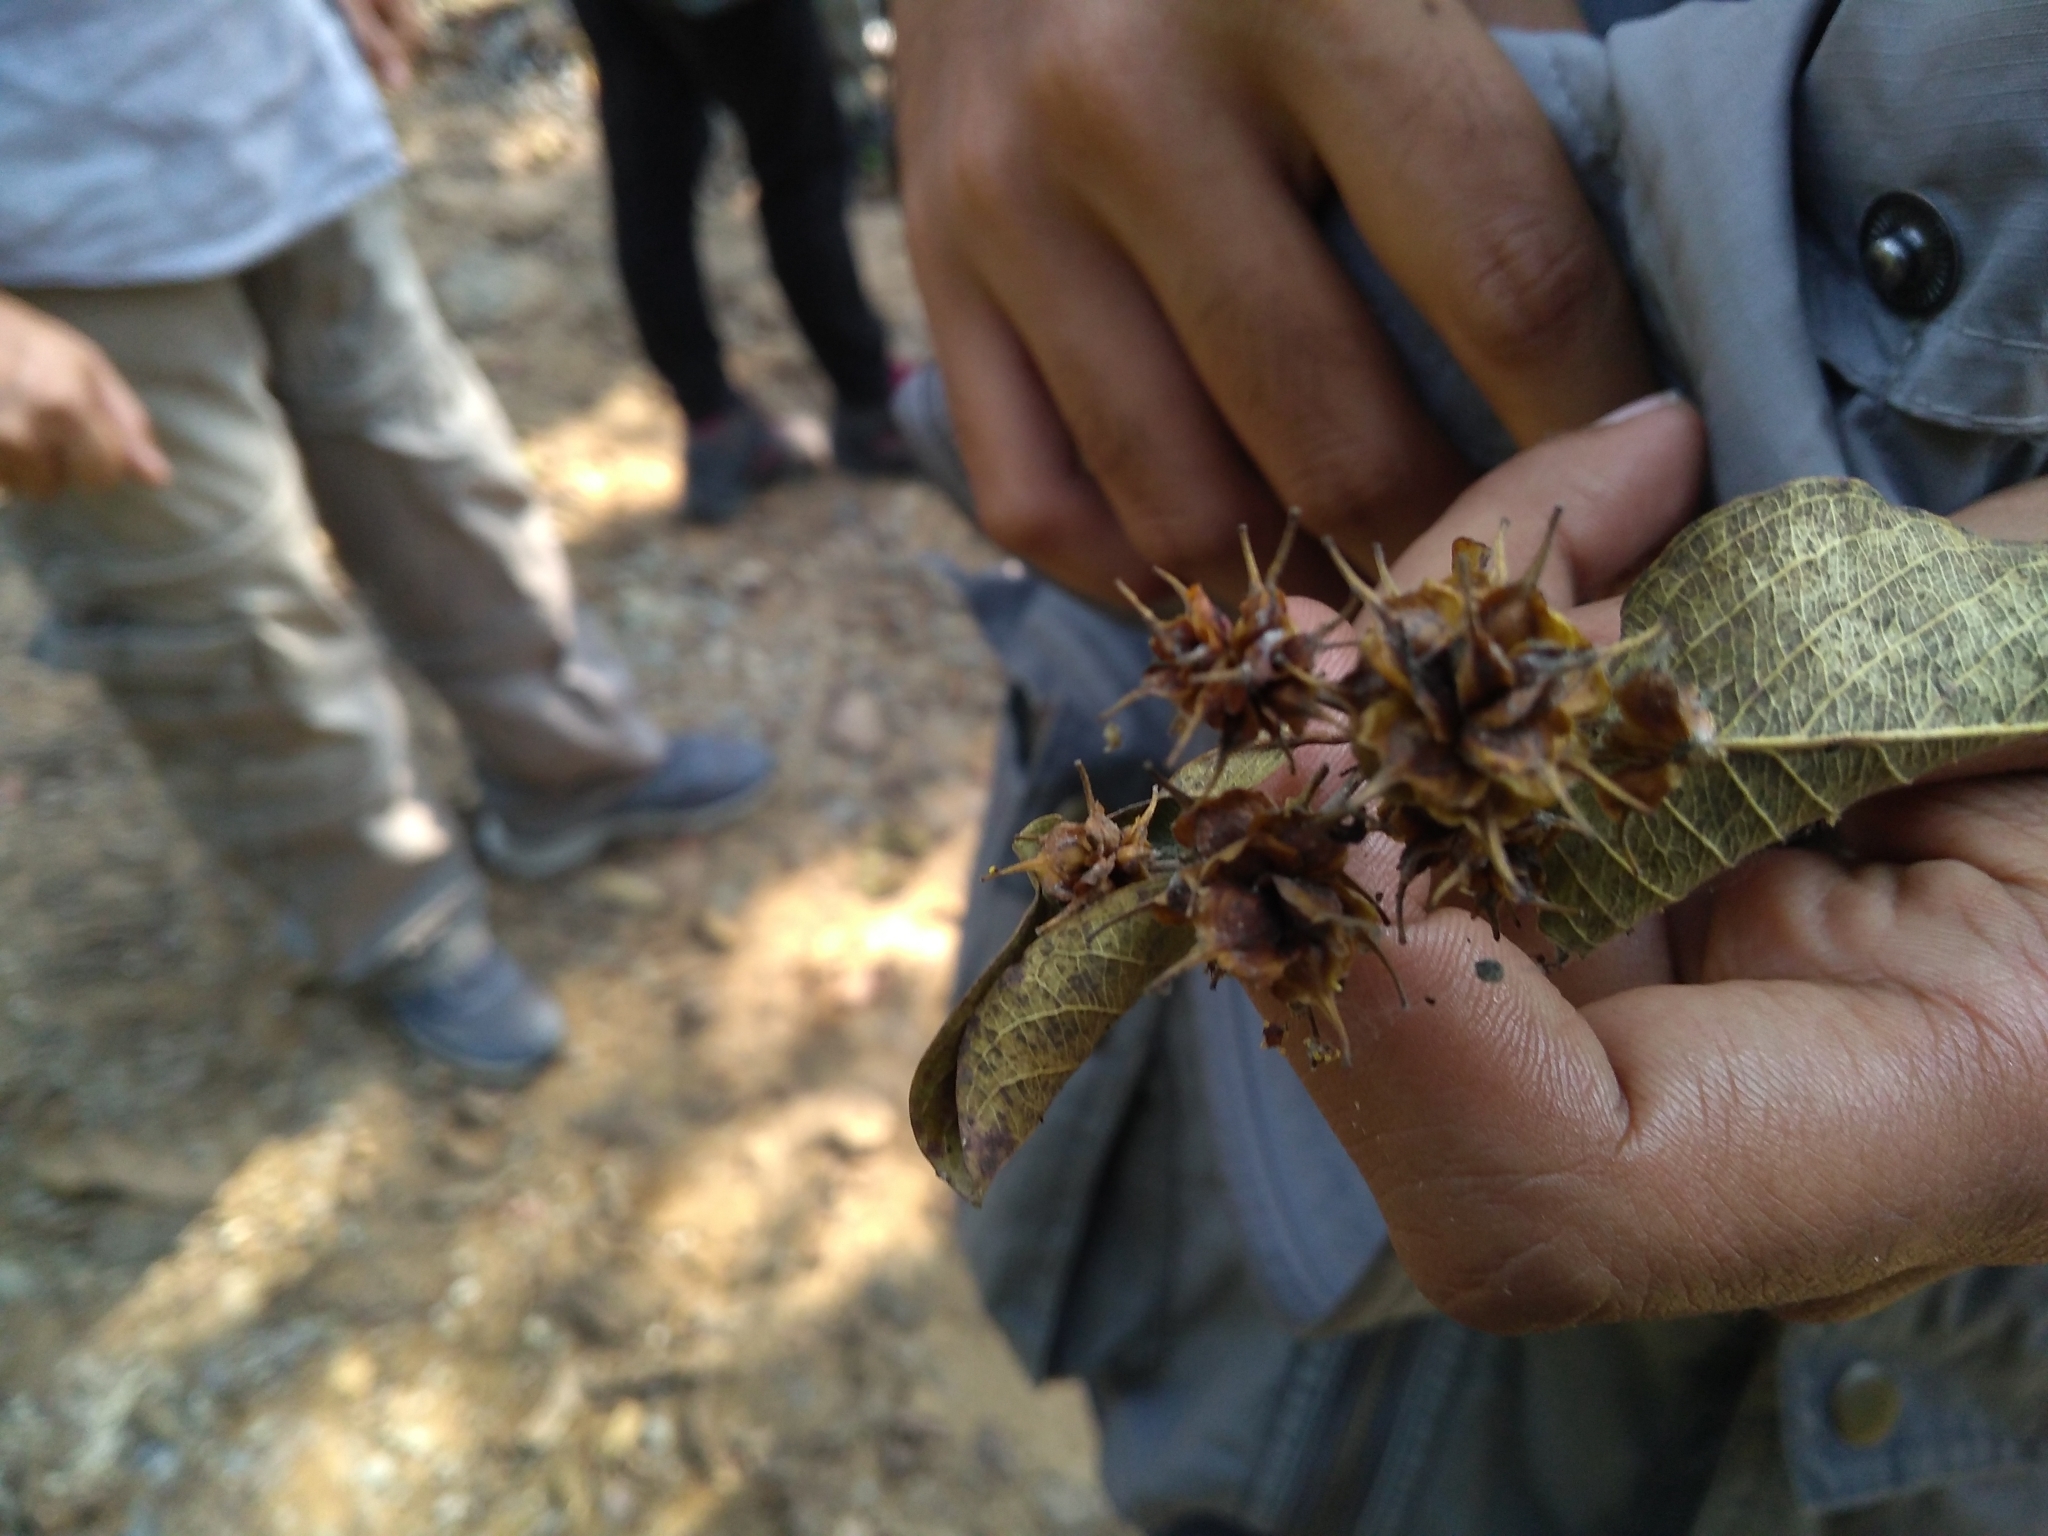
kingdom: Plantae
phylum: Tracheophyta
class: Magnoliopsida
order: Myrtales
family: Combretaceae
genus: Terminalia
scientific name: Terminalia latifolia
